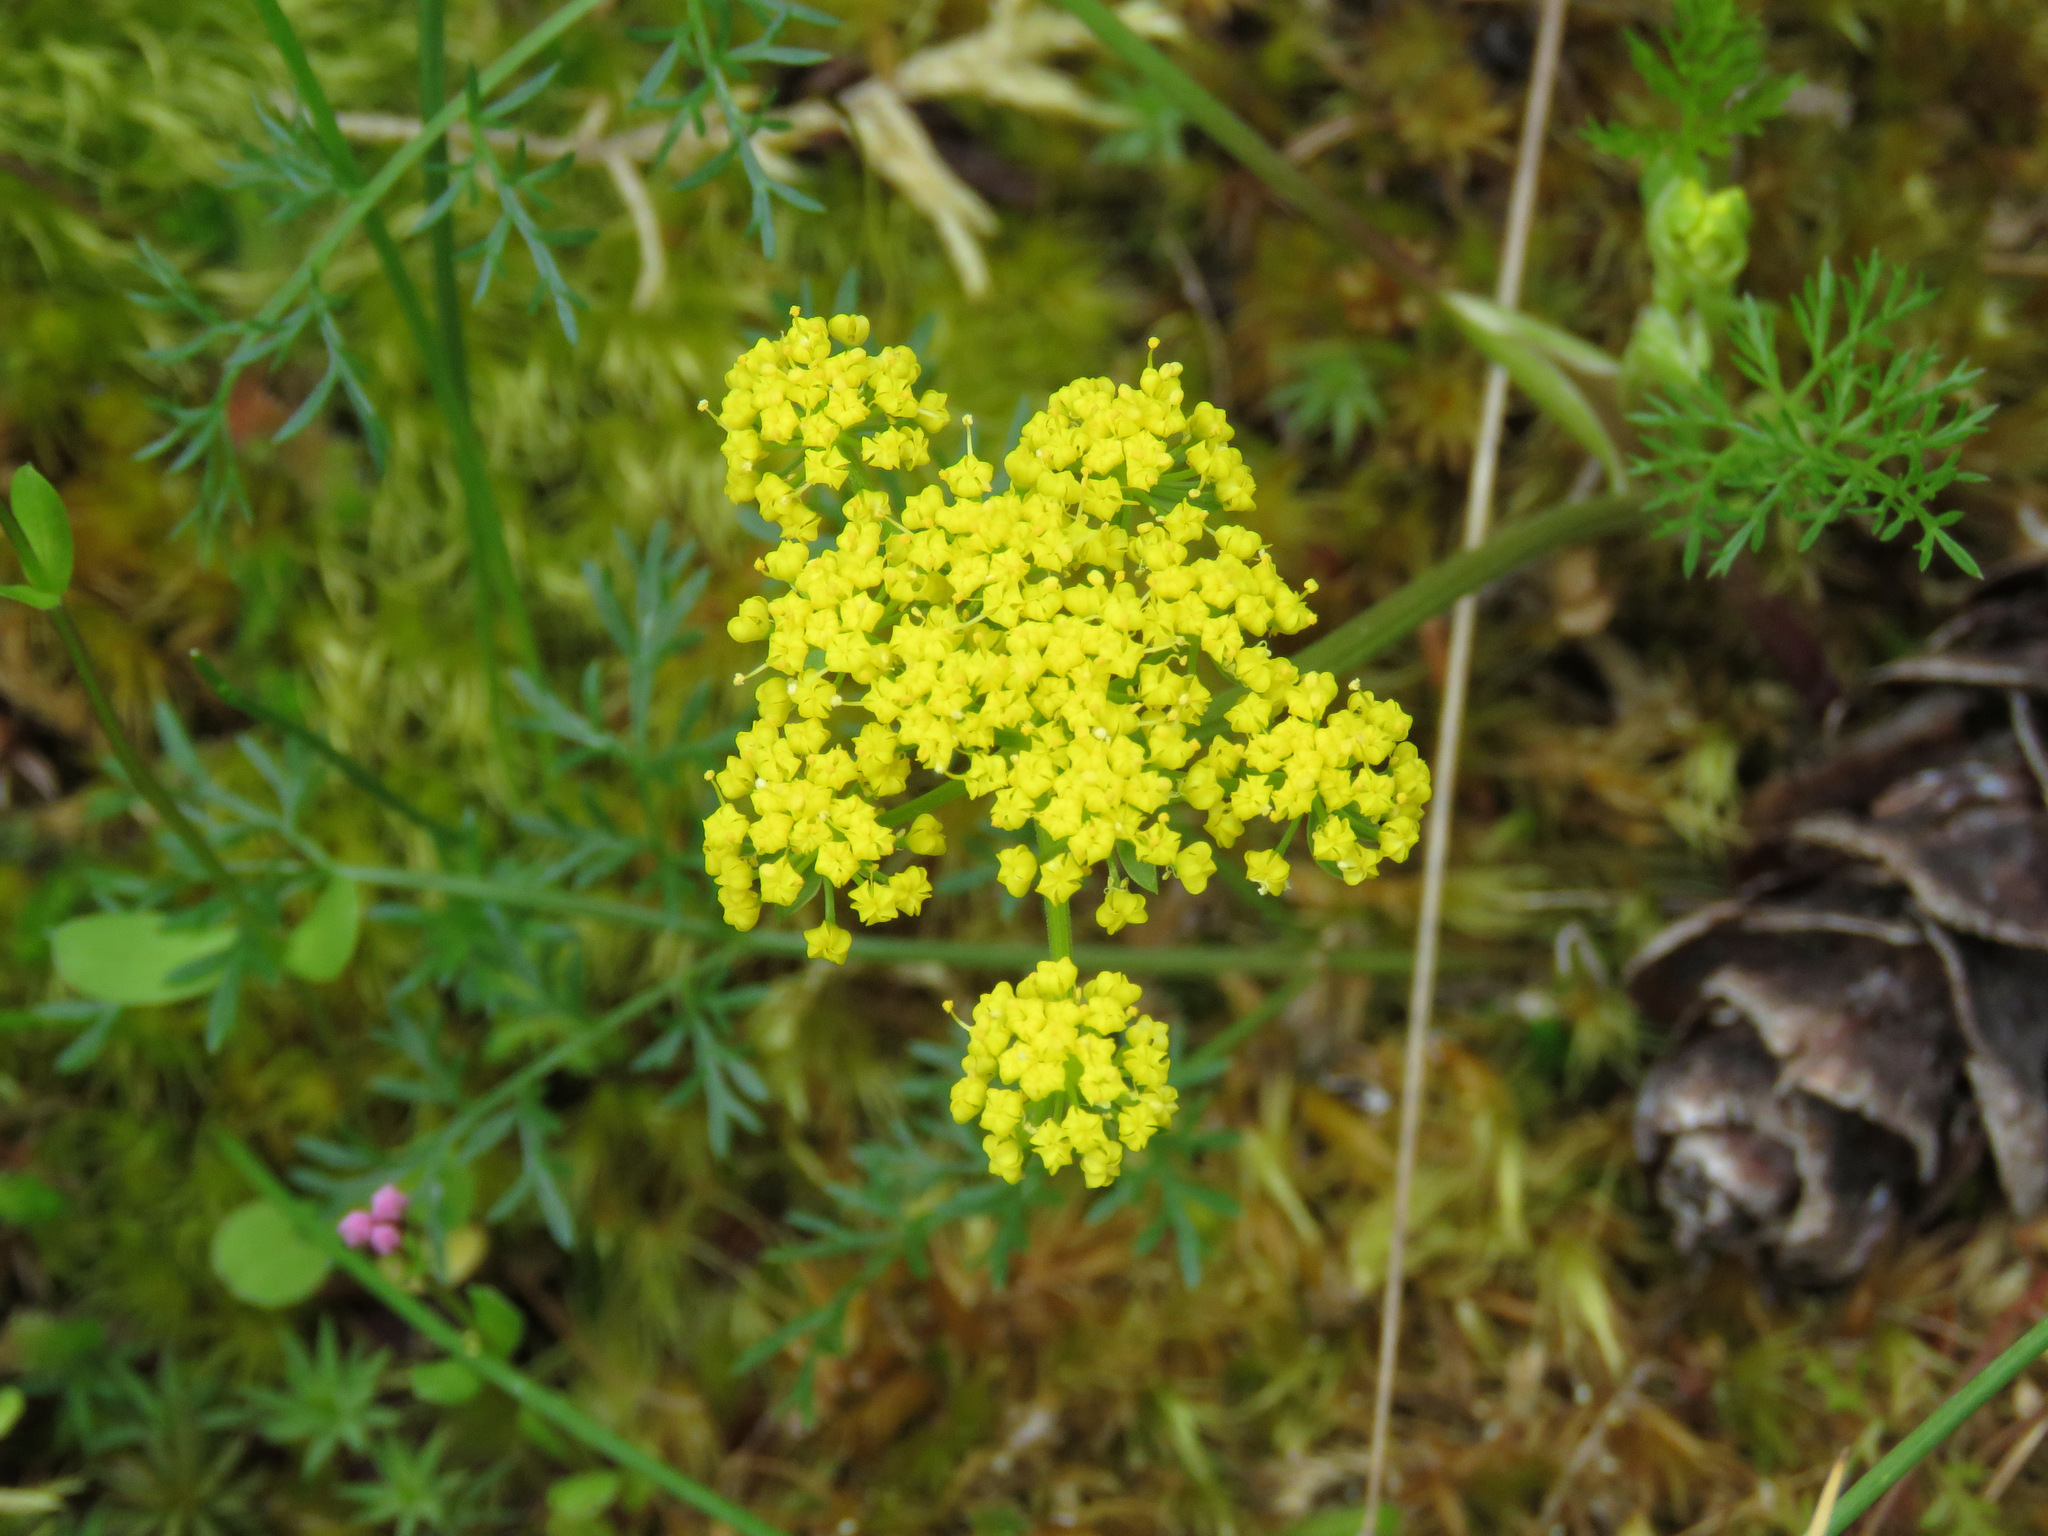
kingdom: Plantae
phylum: Tracheophyta
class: Magnoliopsida
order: Apiales
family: Apiaceae
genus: Lomatium
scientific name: Lomatium utriculatum
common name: Fine-leaf desert-parsley
